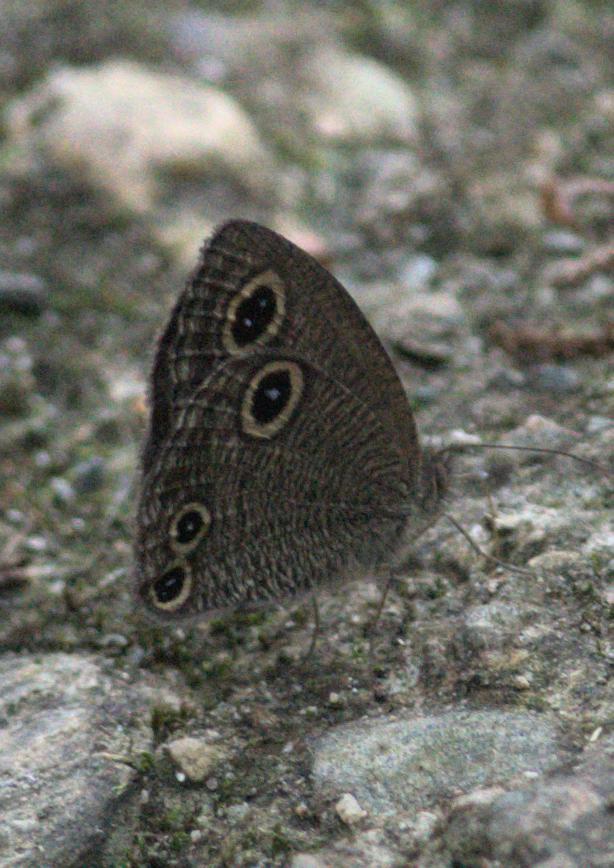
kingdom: Animalia
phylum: Arthropoda
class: Insecta
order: Lepidoptera
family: Nymphalidae
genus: Ypthima
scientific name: Ypthima nareda
